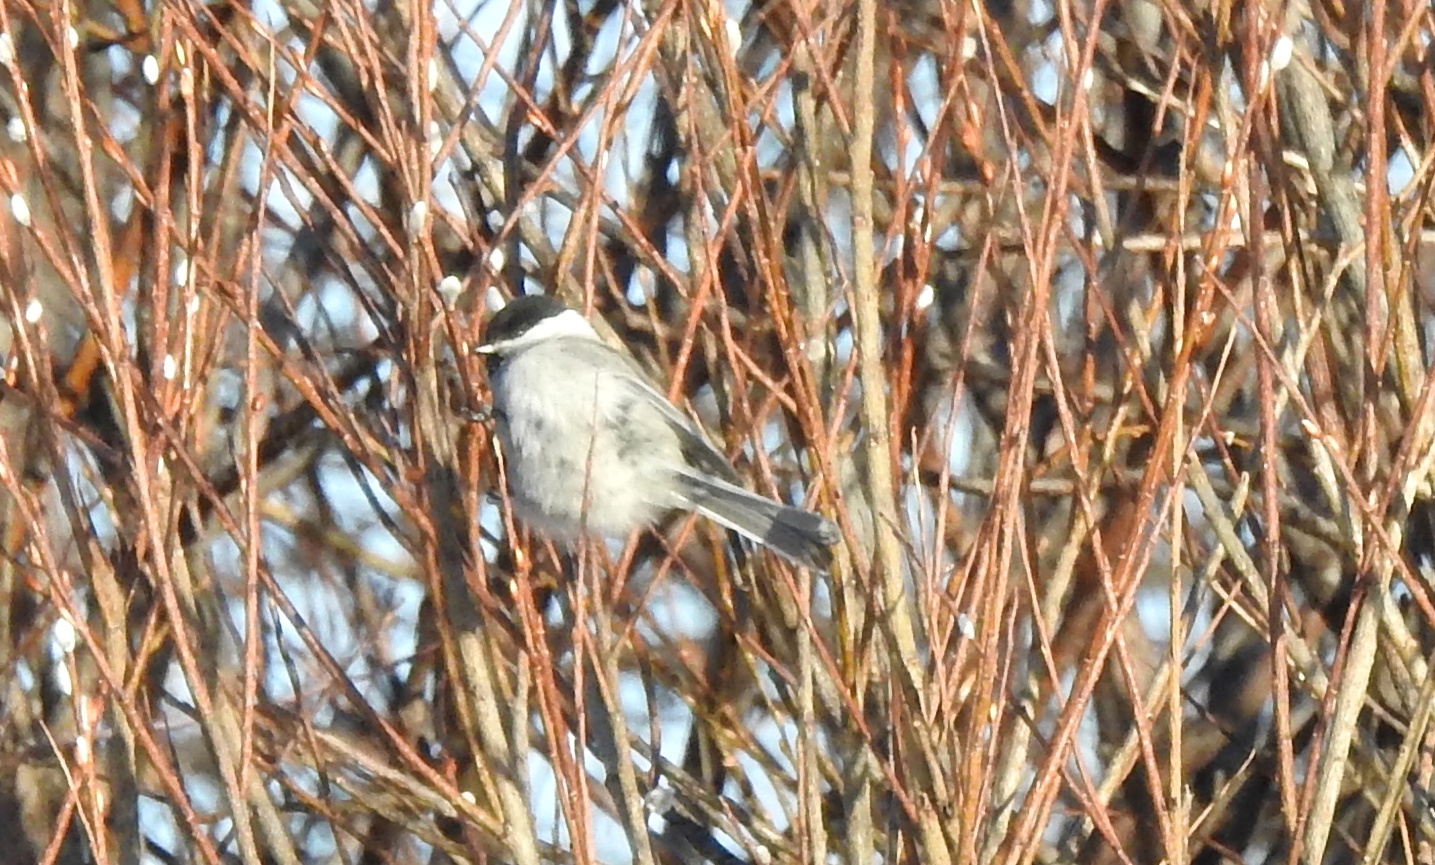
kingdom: Animalia
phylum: Chordata
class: Aves
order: Passeriformes
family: Paridae
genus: Poecile
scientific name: Poecile montanus
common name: Willow tit
